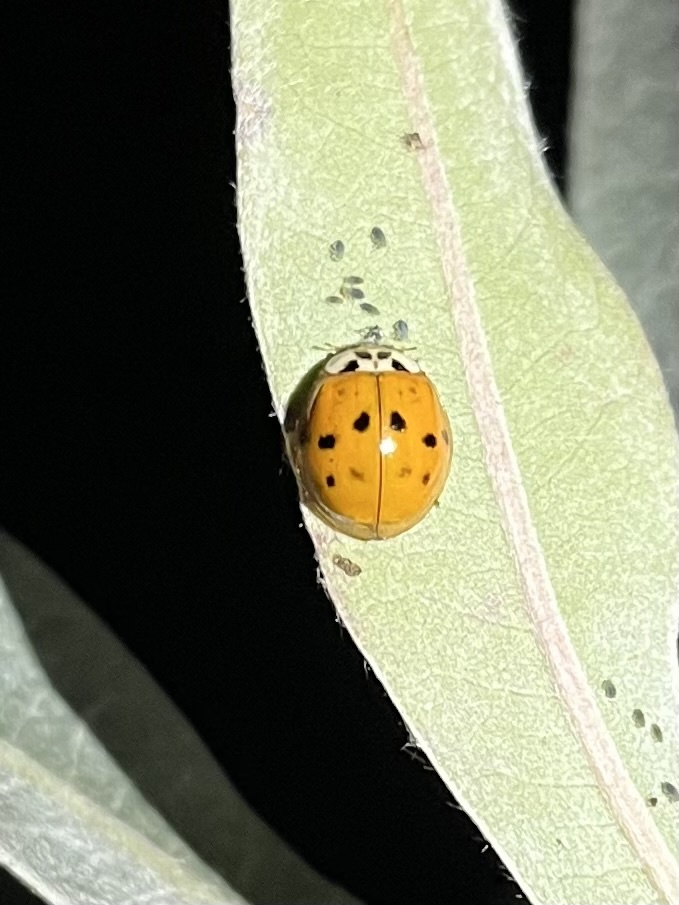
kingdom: Animalia
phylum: Arthropoda
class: Insecta
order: Coleoptera
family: Coccinellidae
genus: Harmonia
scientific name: Harmonia axyridis
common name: Harlequin ladybird
